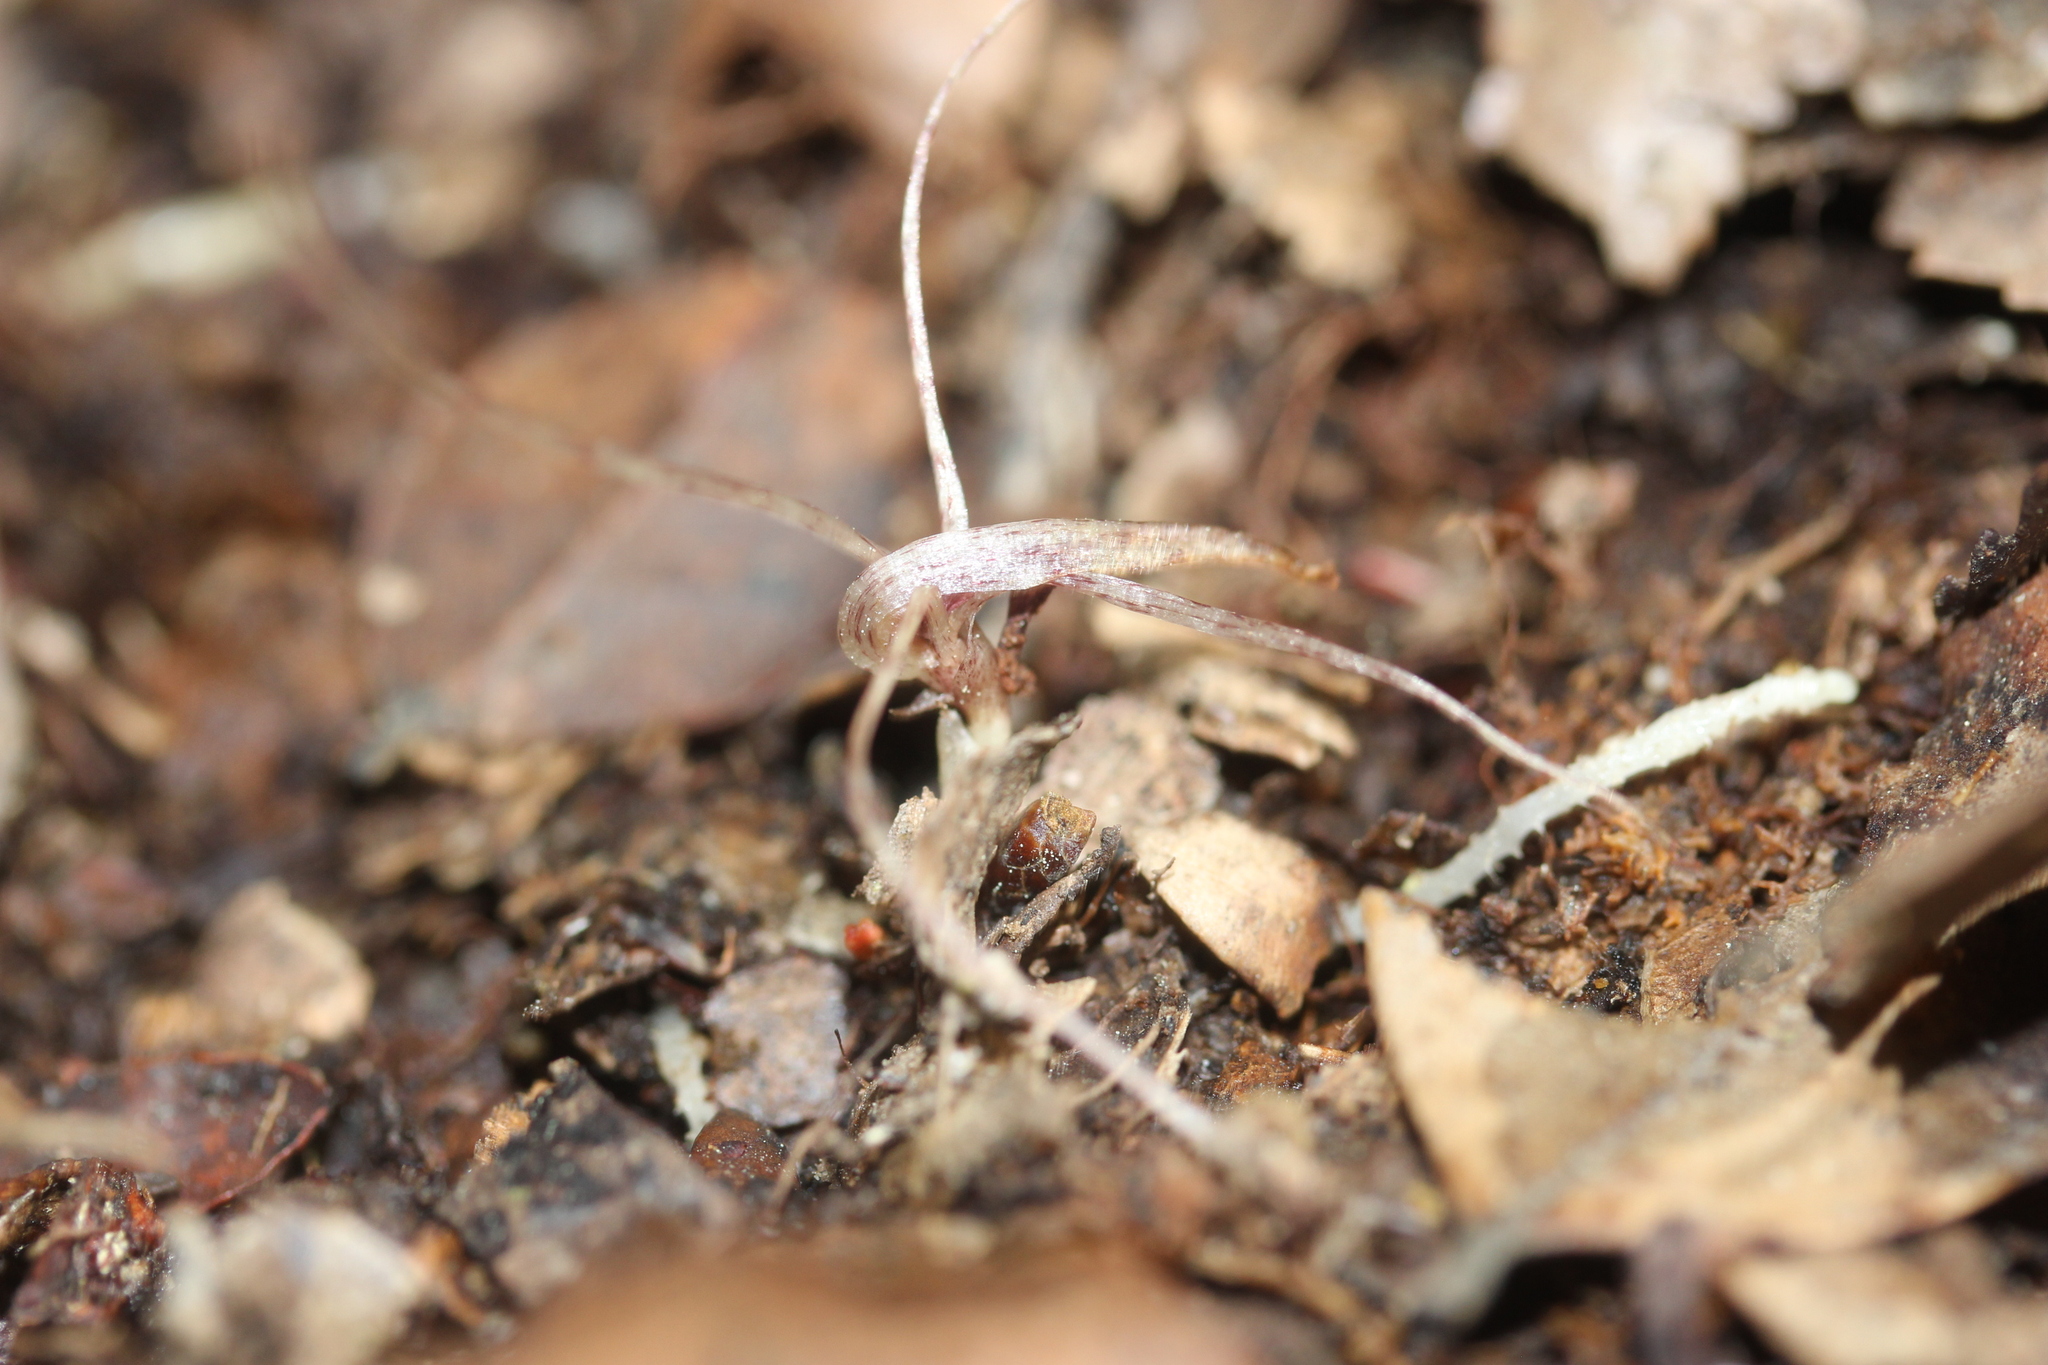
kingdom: Plantae
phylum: Tracheophyta
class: Liliopsida
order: Asparagales
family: Orchidaceae
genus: Corybas
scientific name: Corybas cryptanthus
